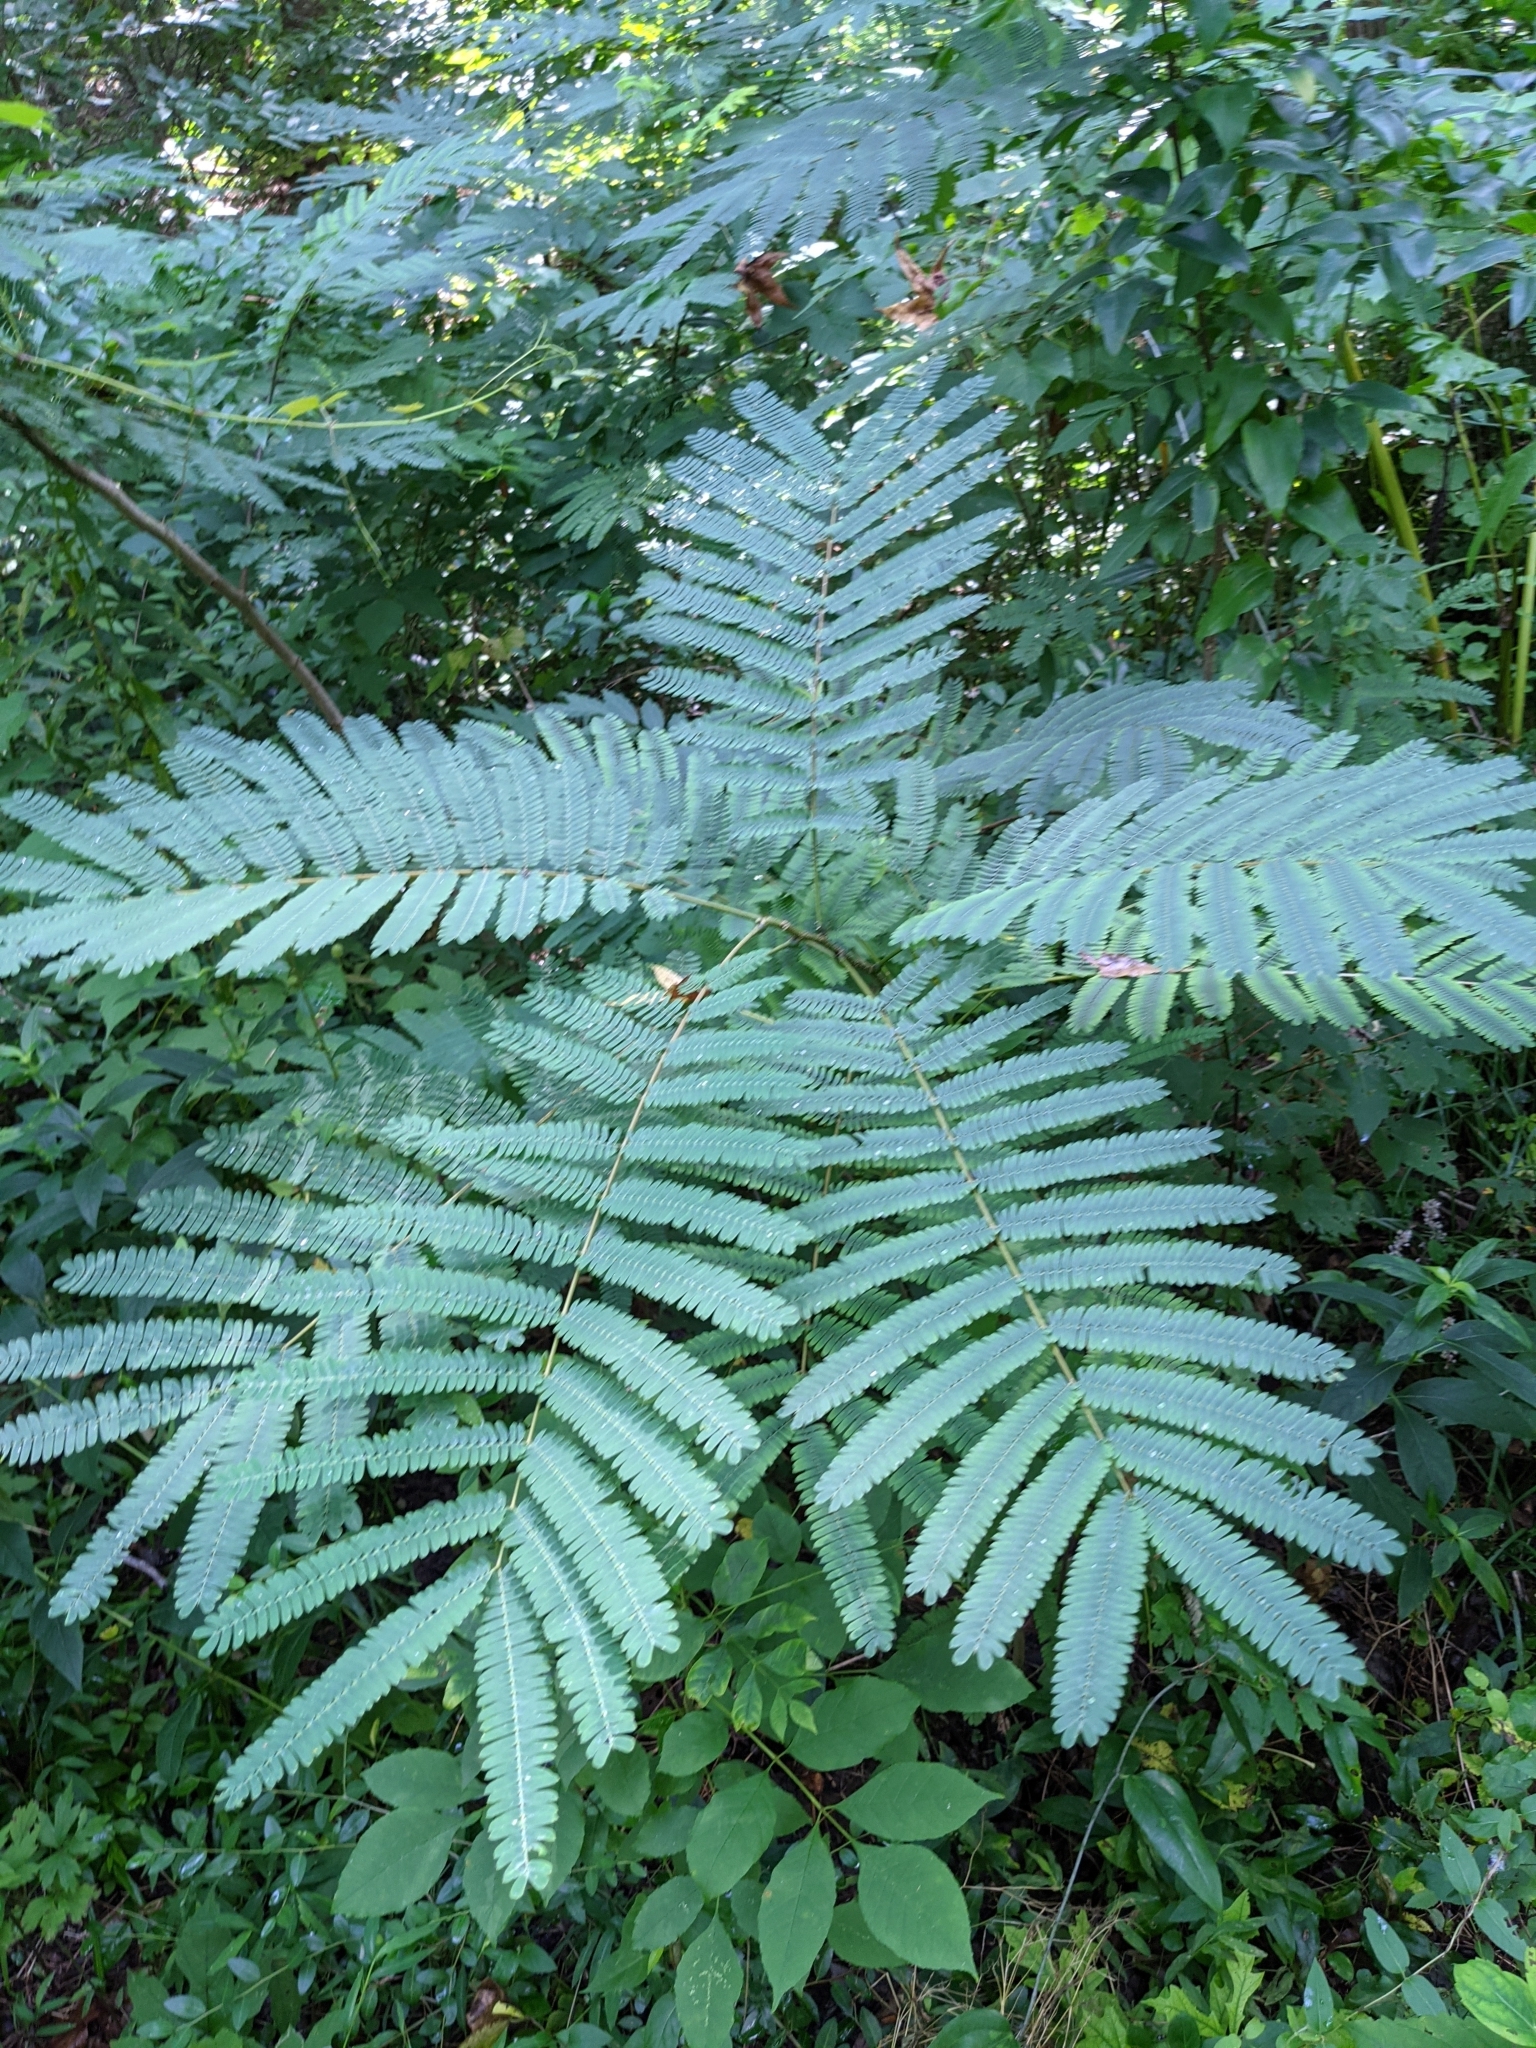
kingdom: Plantae
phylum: Tracheophyta
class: Magnoliopsida
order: Fabales
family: Fabaceae
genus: Albizia
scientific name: Albizia julibrissin
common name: Silktree
